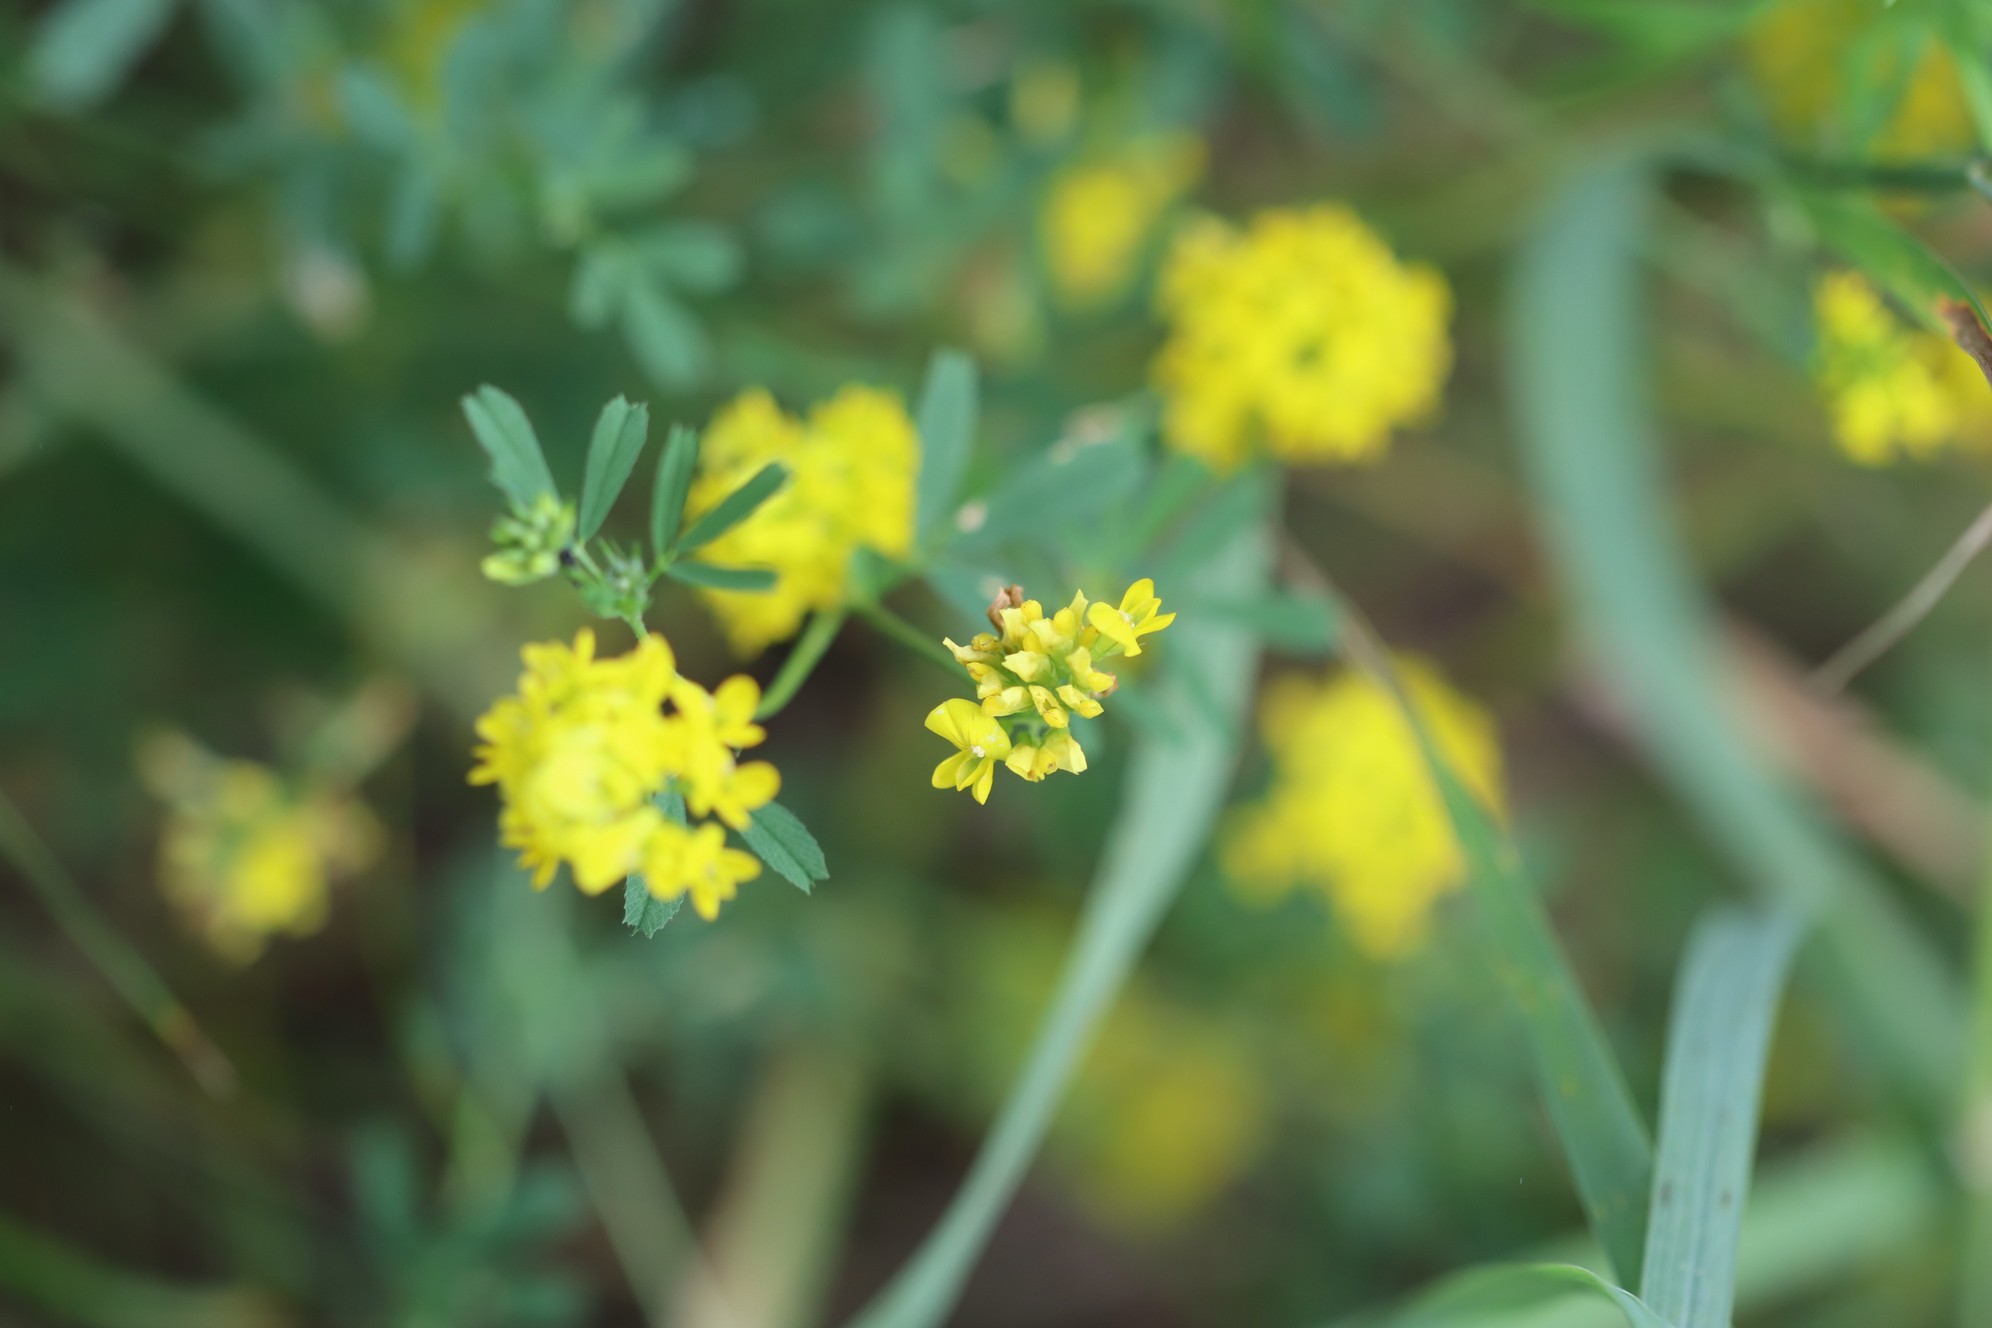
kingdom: Plantae
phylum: Tracheophyta
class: Magnoliopsida
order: Fabales
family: Fabaceae
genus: Medicago
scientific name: Medicago falcata
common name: Sickle medick
